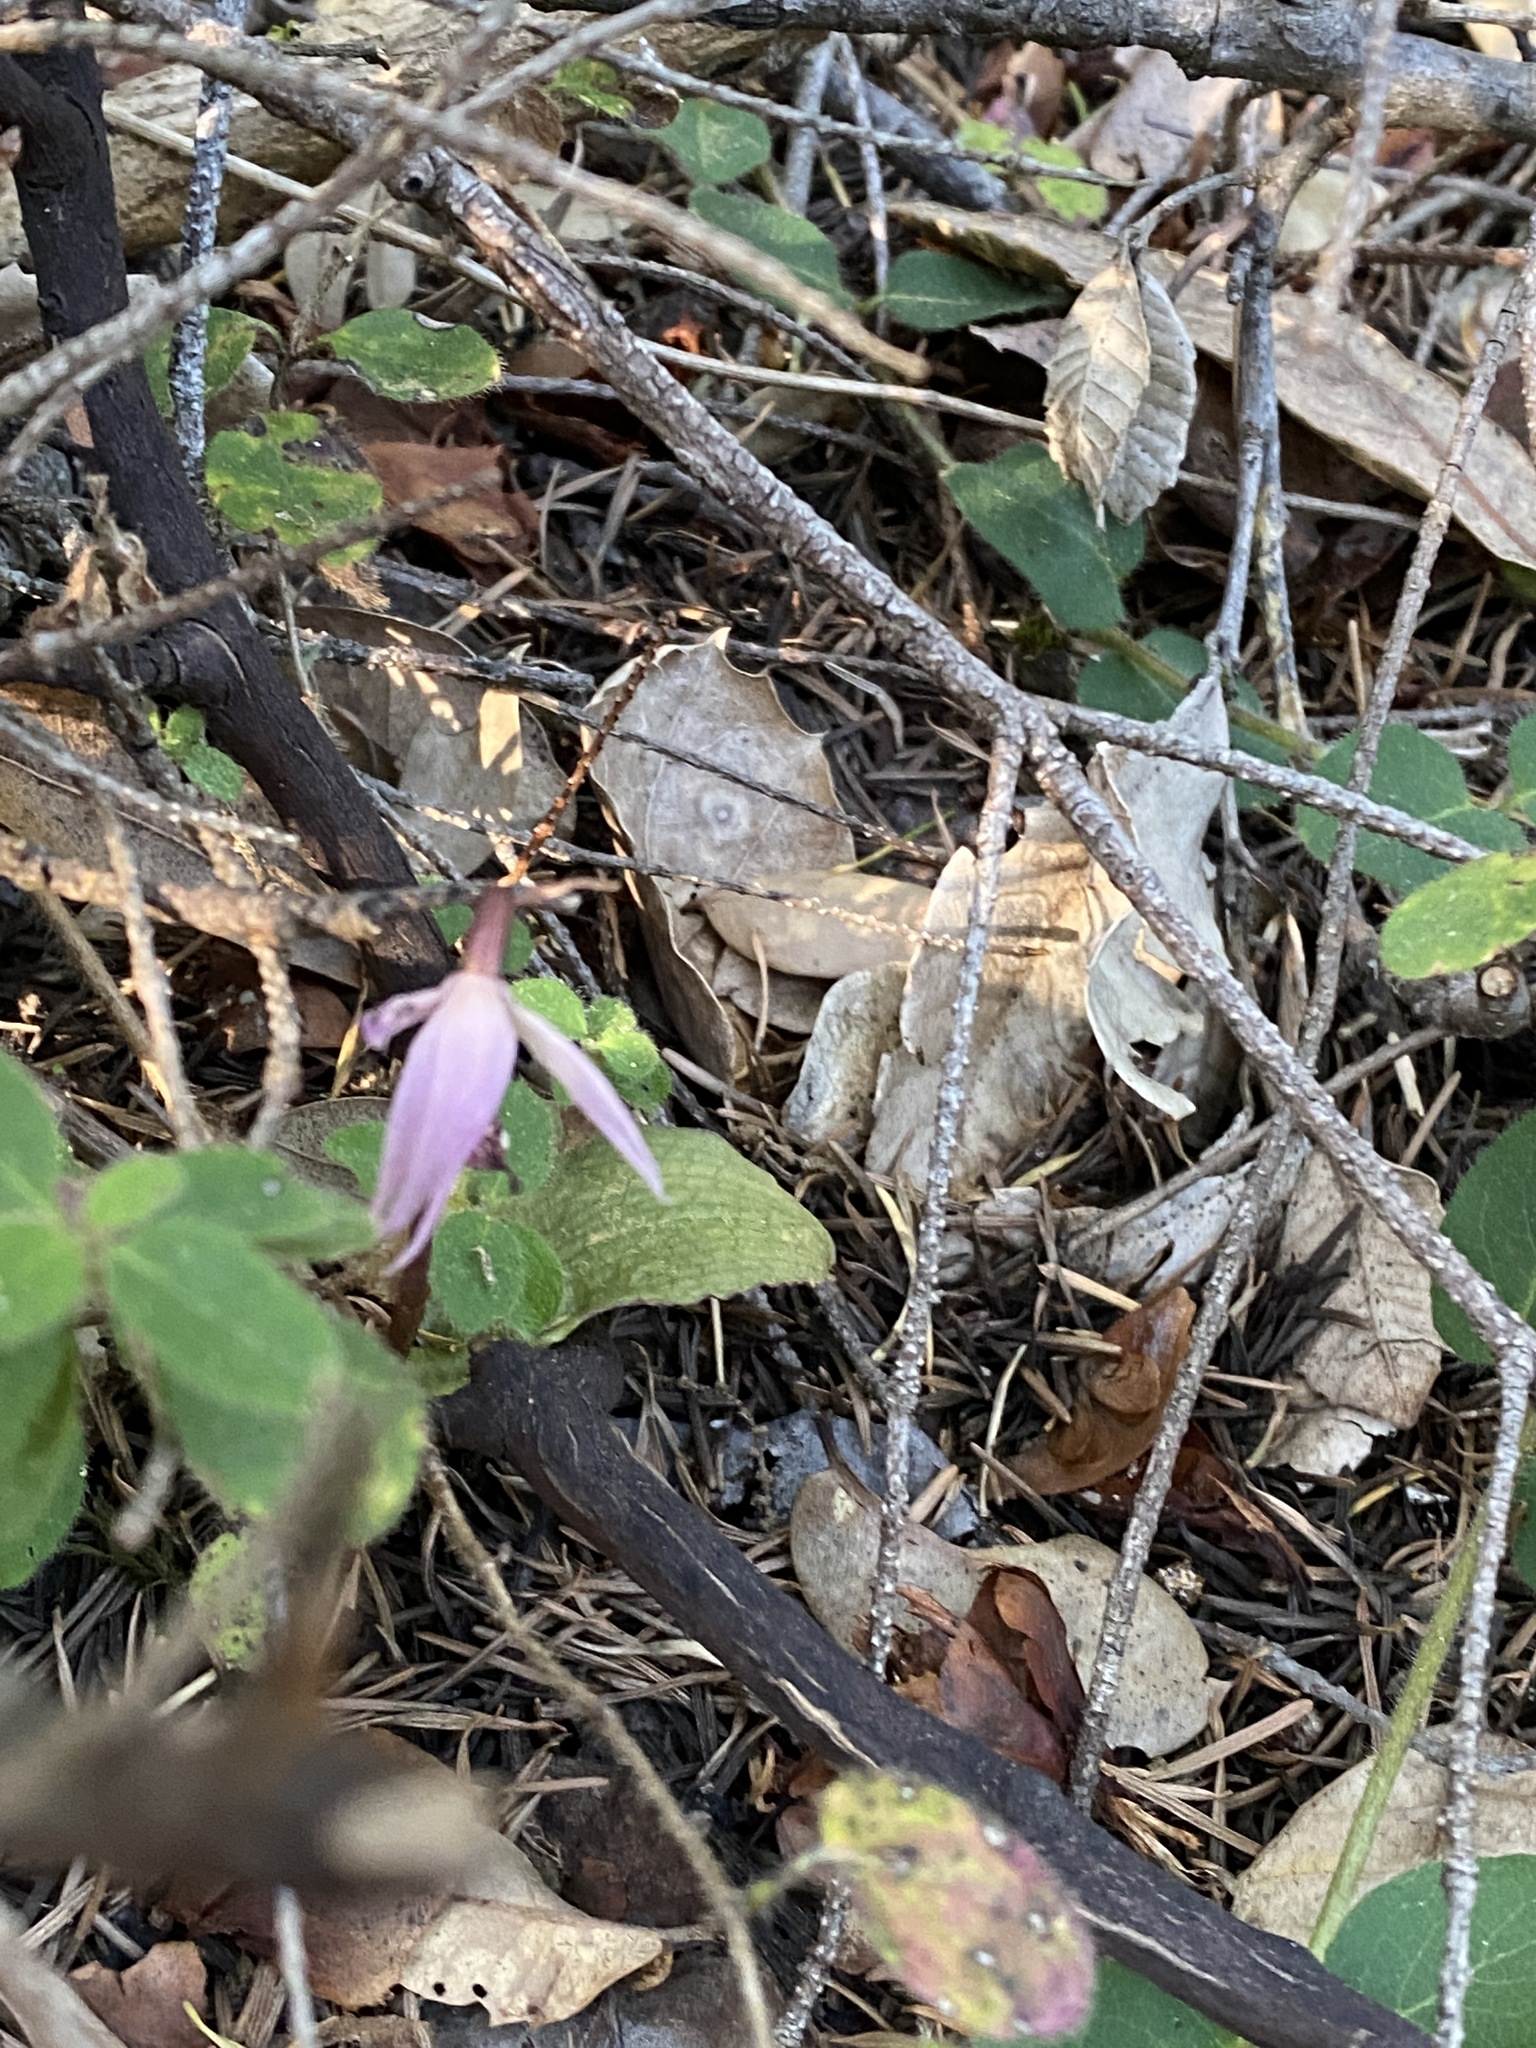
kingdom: Plantae
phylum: Tracheophyta
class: Liliopsida
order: Asparagales
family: Orchidaceae
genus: Calypso
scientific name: Calypso bulbosa
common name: Calypso
